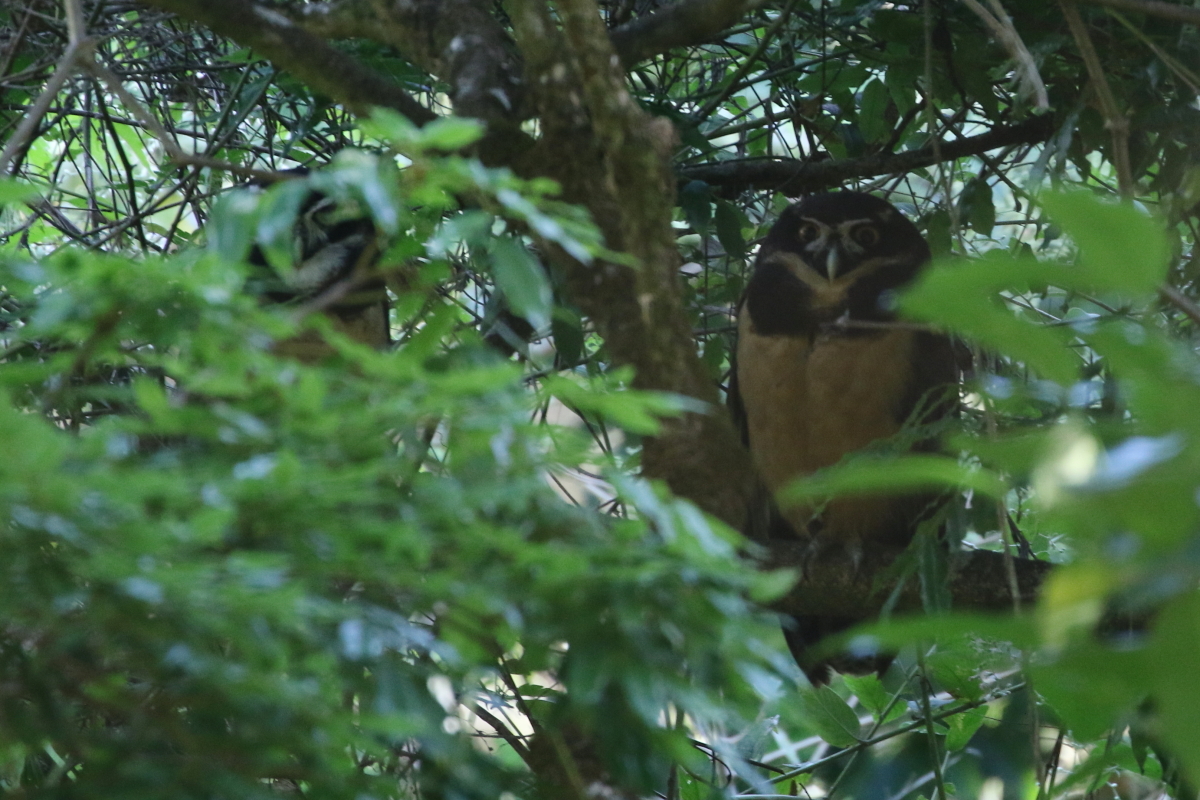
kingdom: Animalia
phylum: Chordata
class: Aves
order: Strigiformes
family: Strigidae
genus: Pulsatrix
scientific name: Pulsatrix perspicillata
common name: Spectacled owl
